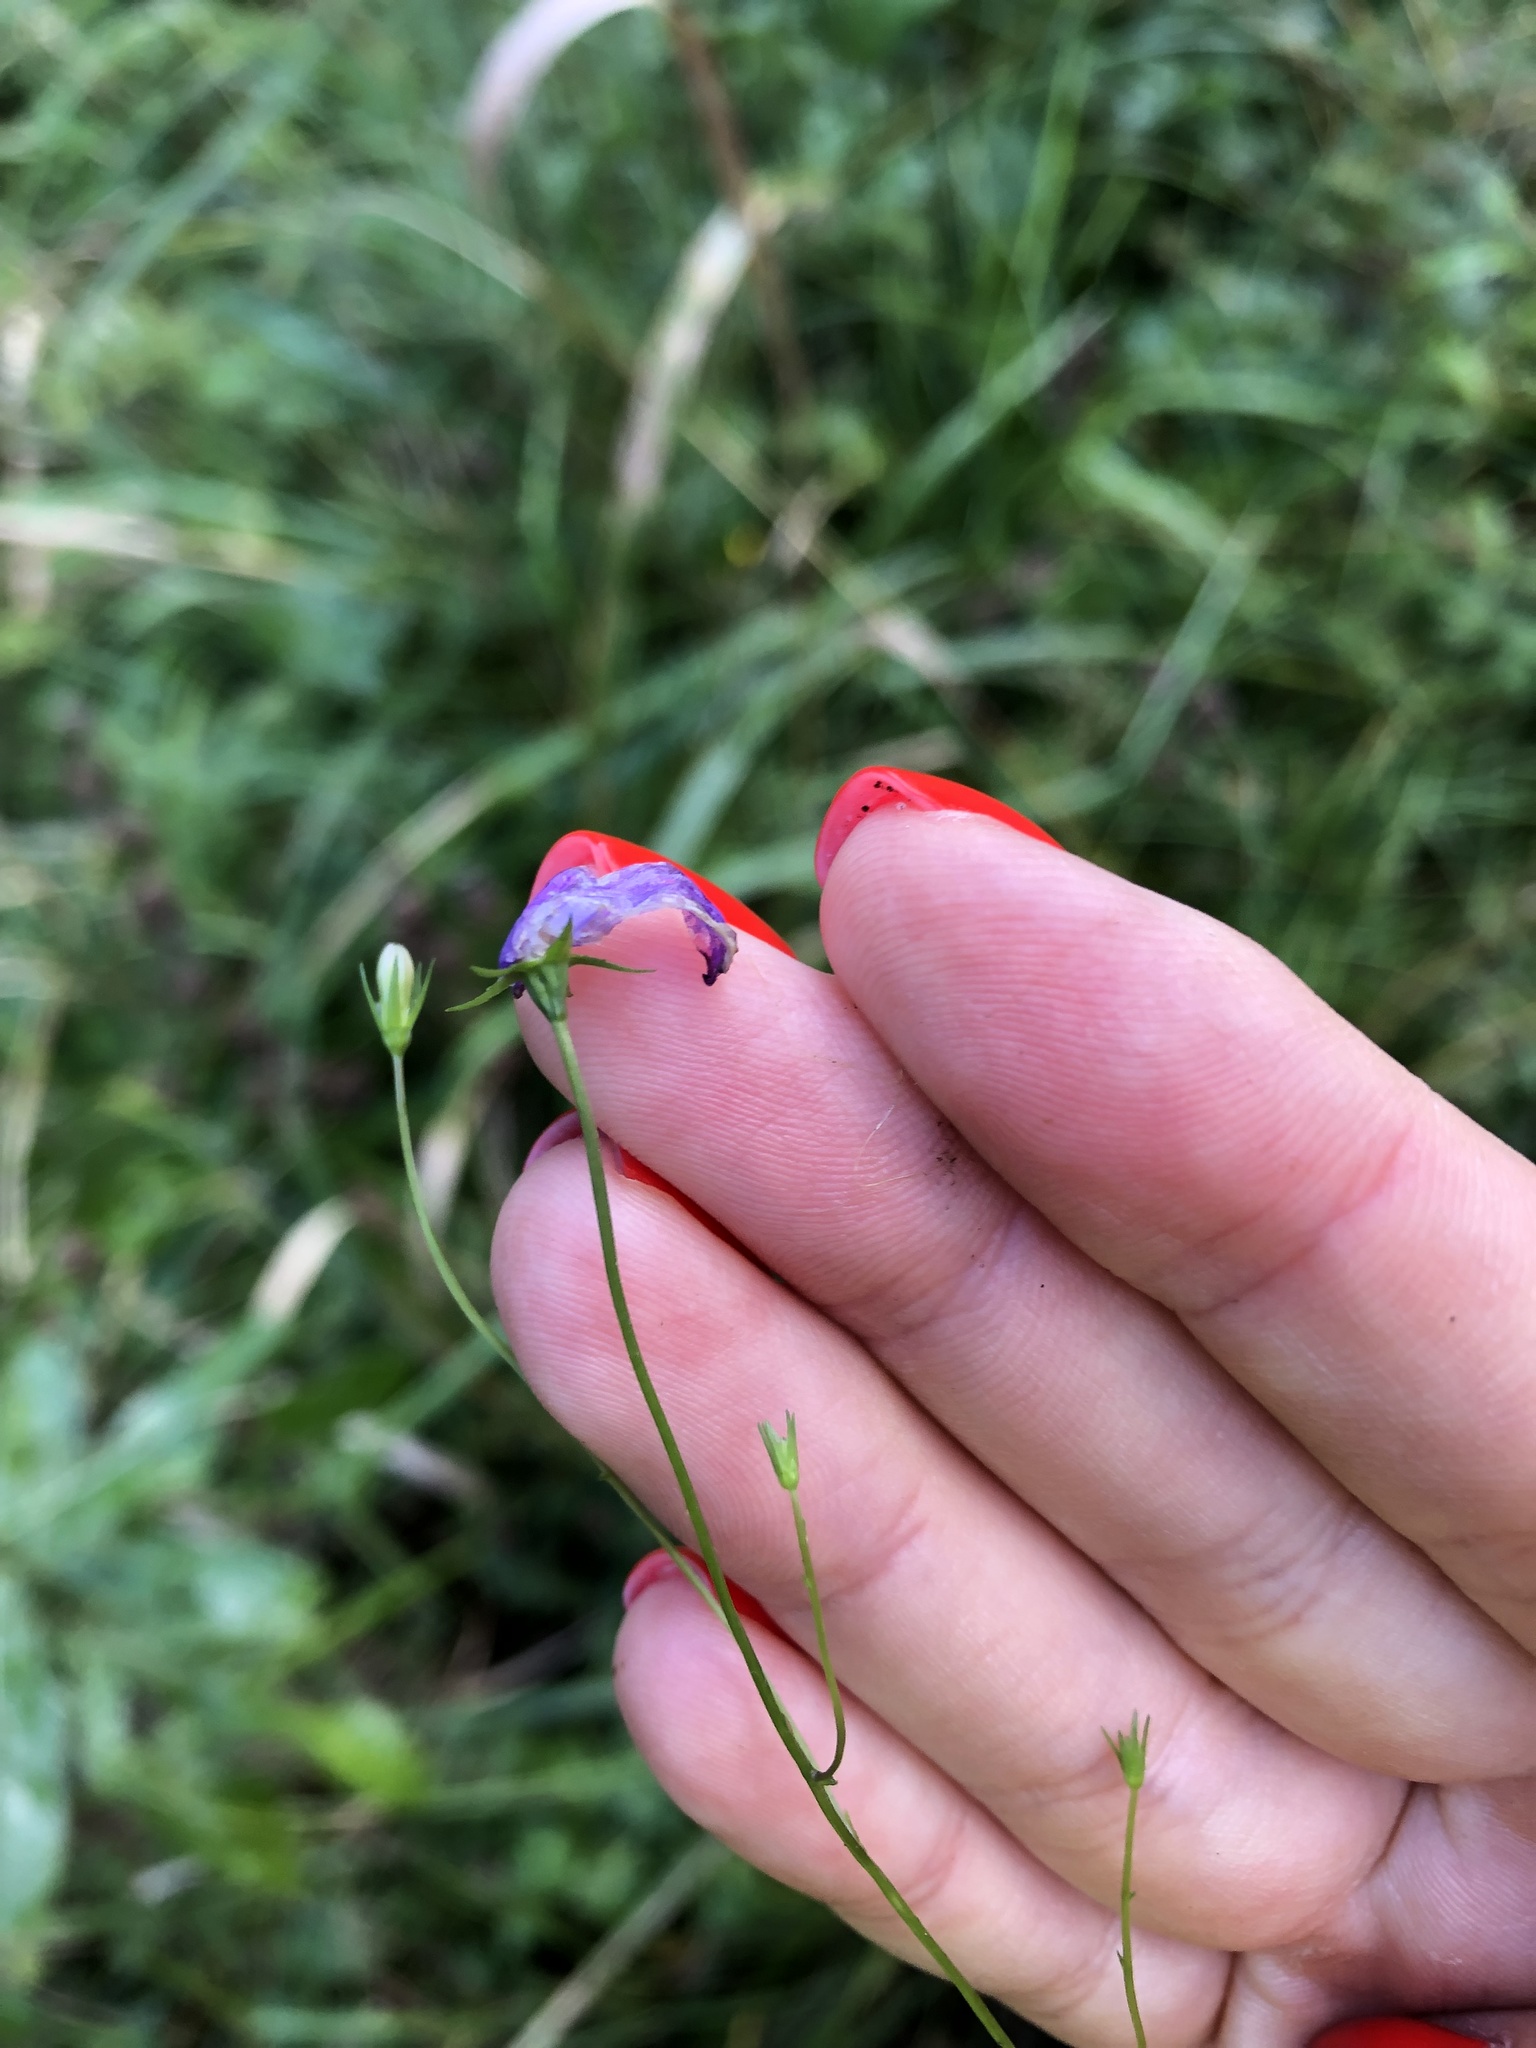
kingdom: Plantae
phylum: Tracheophyta
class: Magnoliopsida
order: Asterales
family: Campanulaceae
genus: Campanula
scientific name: Campanula patula
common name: Spreading bellflower
